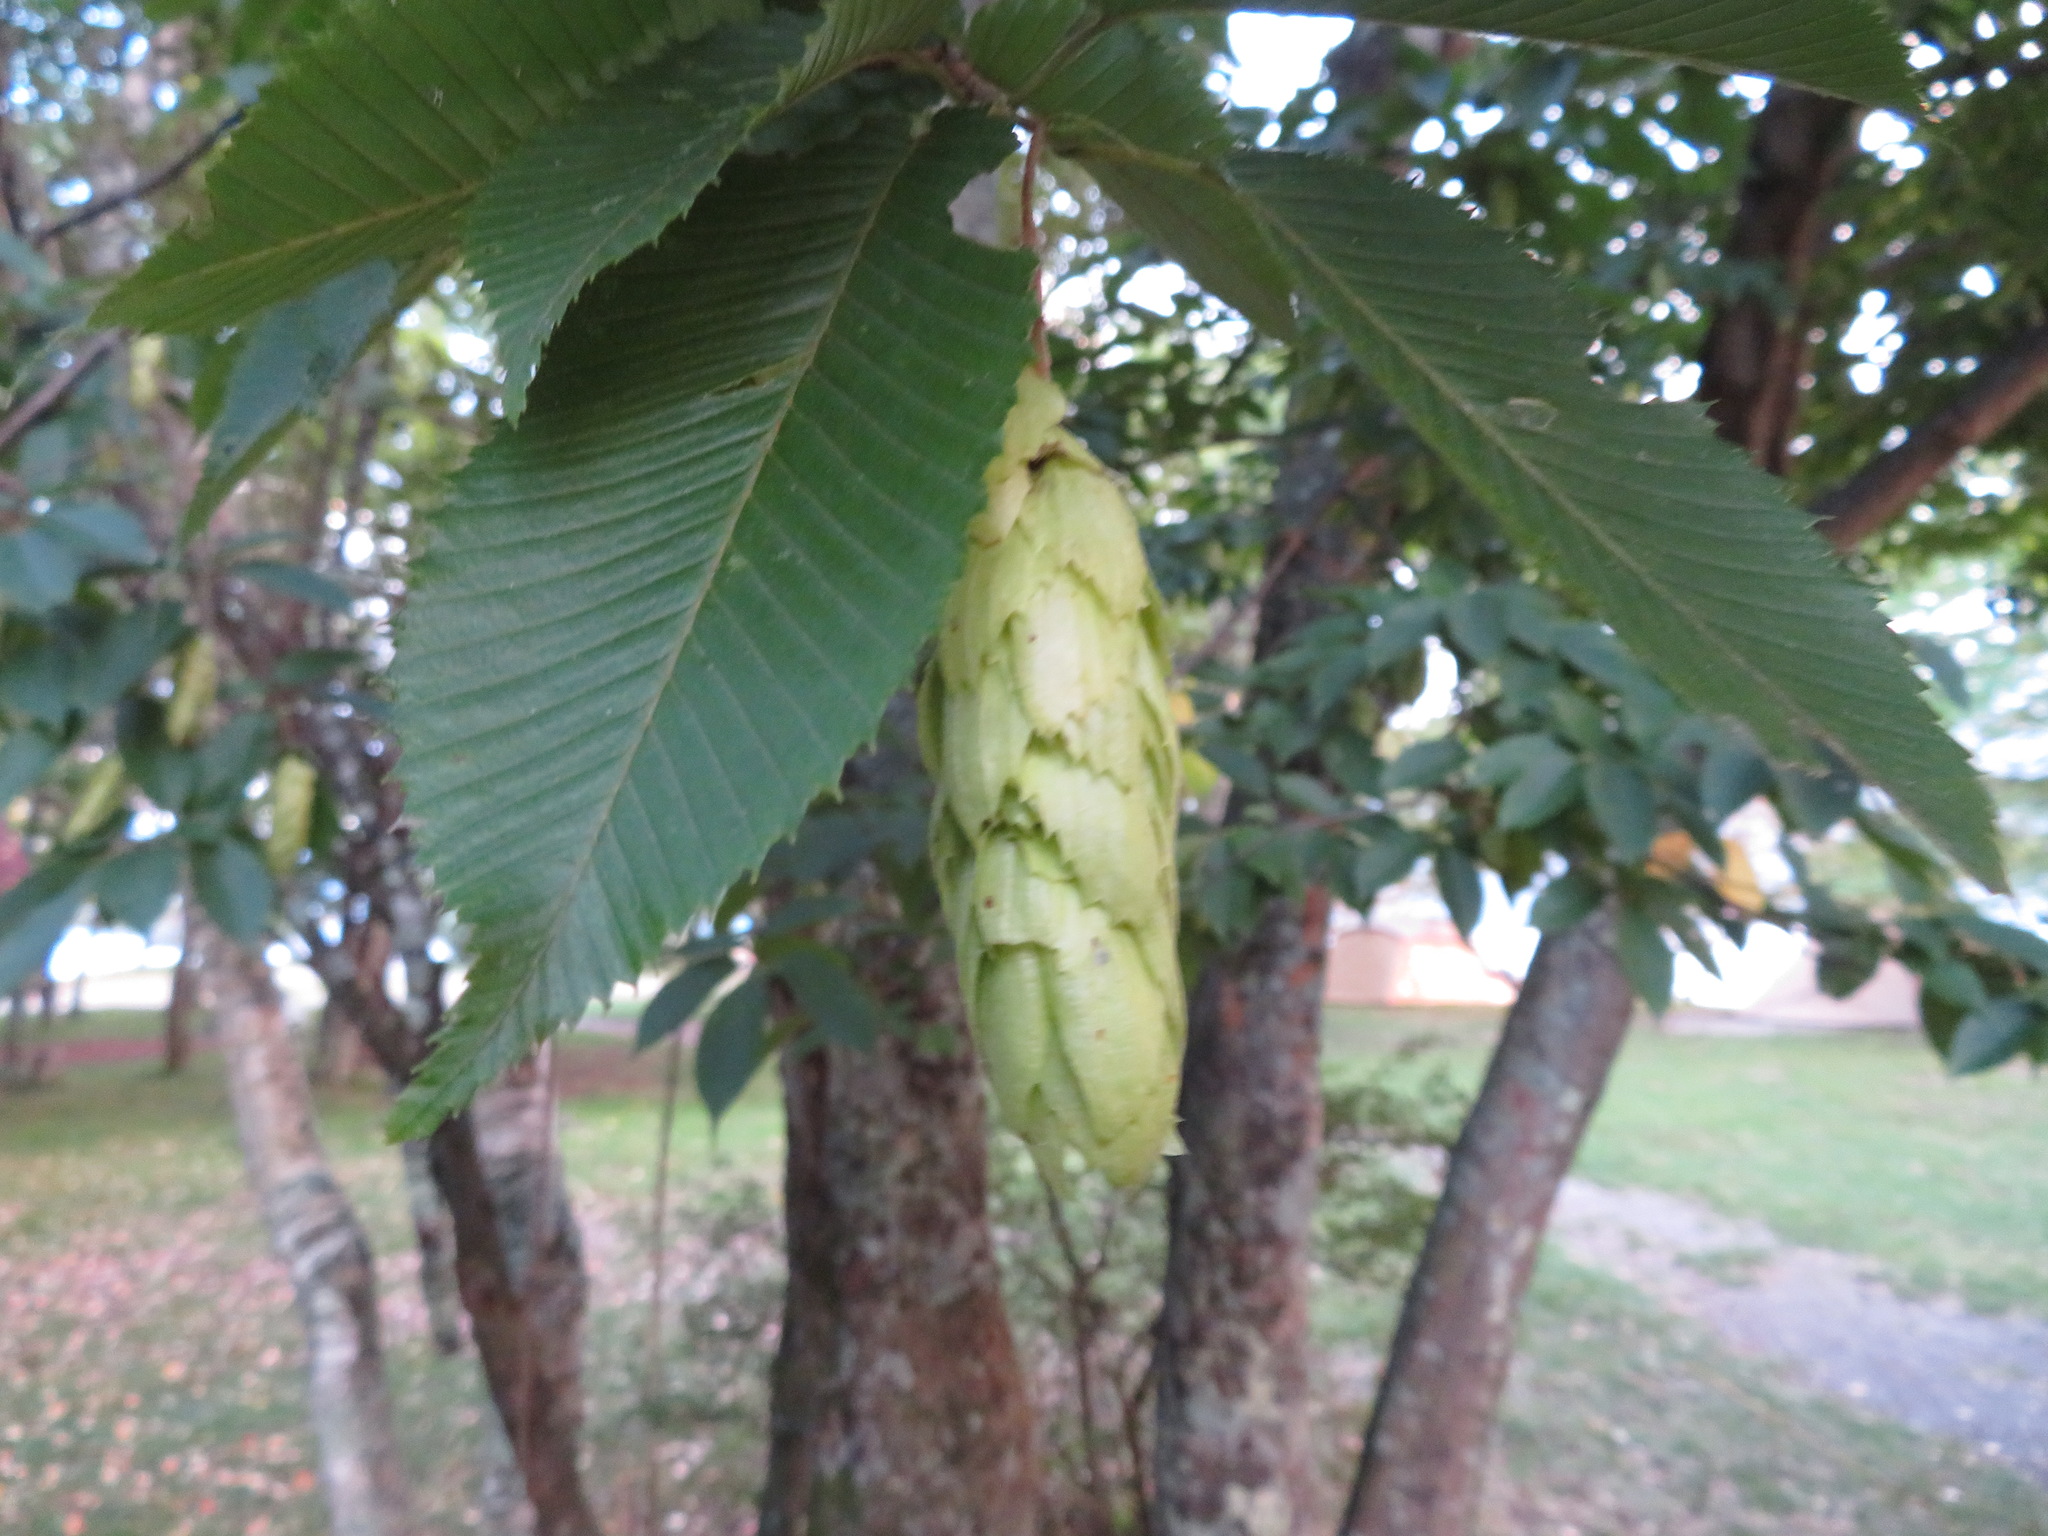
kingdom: Plantae
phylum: Tracheophyta
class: Magnoliopsida
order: Fagales
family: Betulaceae
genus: Carpinus
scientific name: Carpinus japonica
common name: Japanese hornbeam
